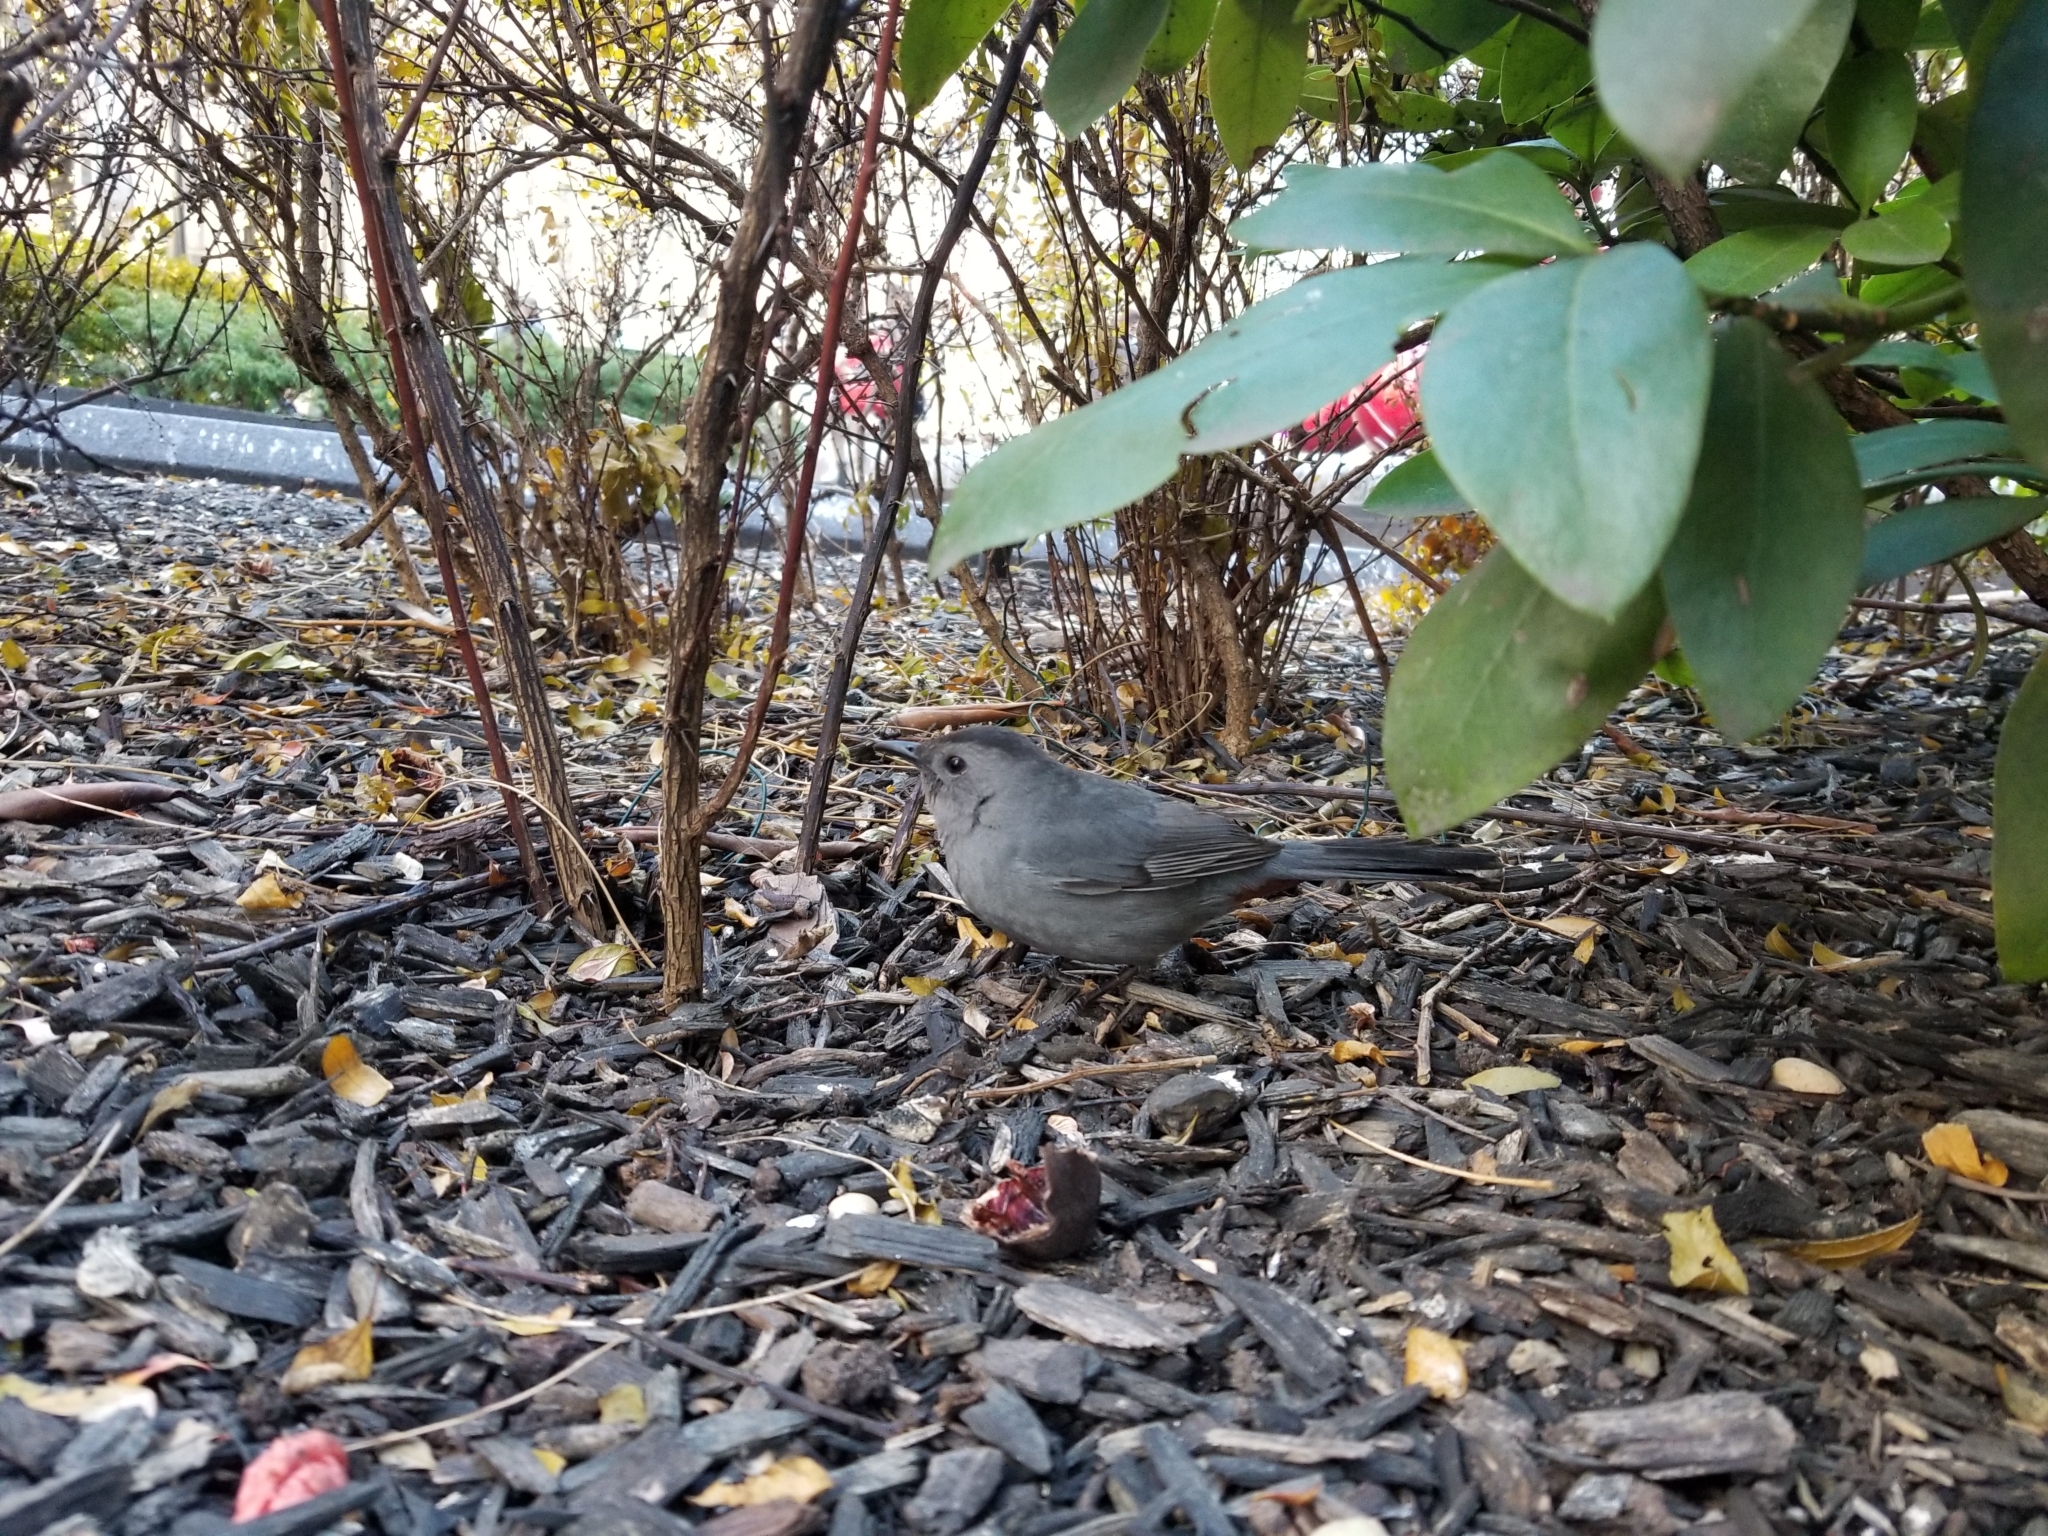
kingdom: Animalia
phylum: Chordata
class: Aves
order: Passeriformes
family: Mimidae
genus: Dumetella
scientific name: Dumetella carolinensis
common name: Gray catbird
